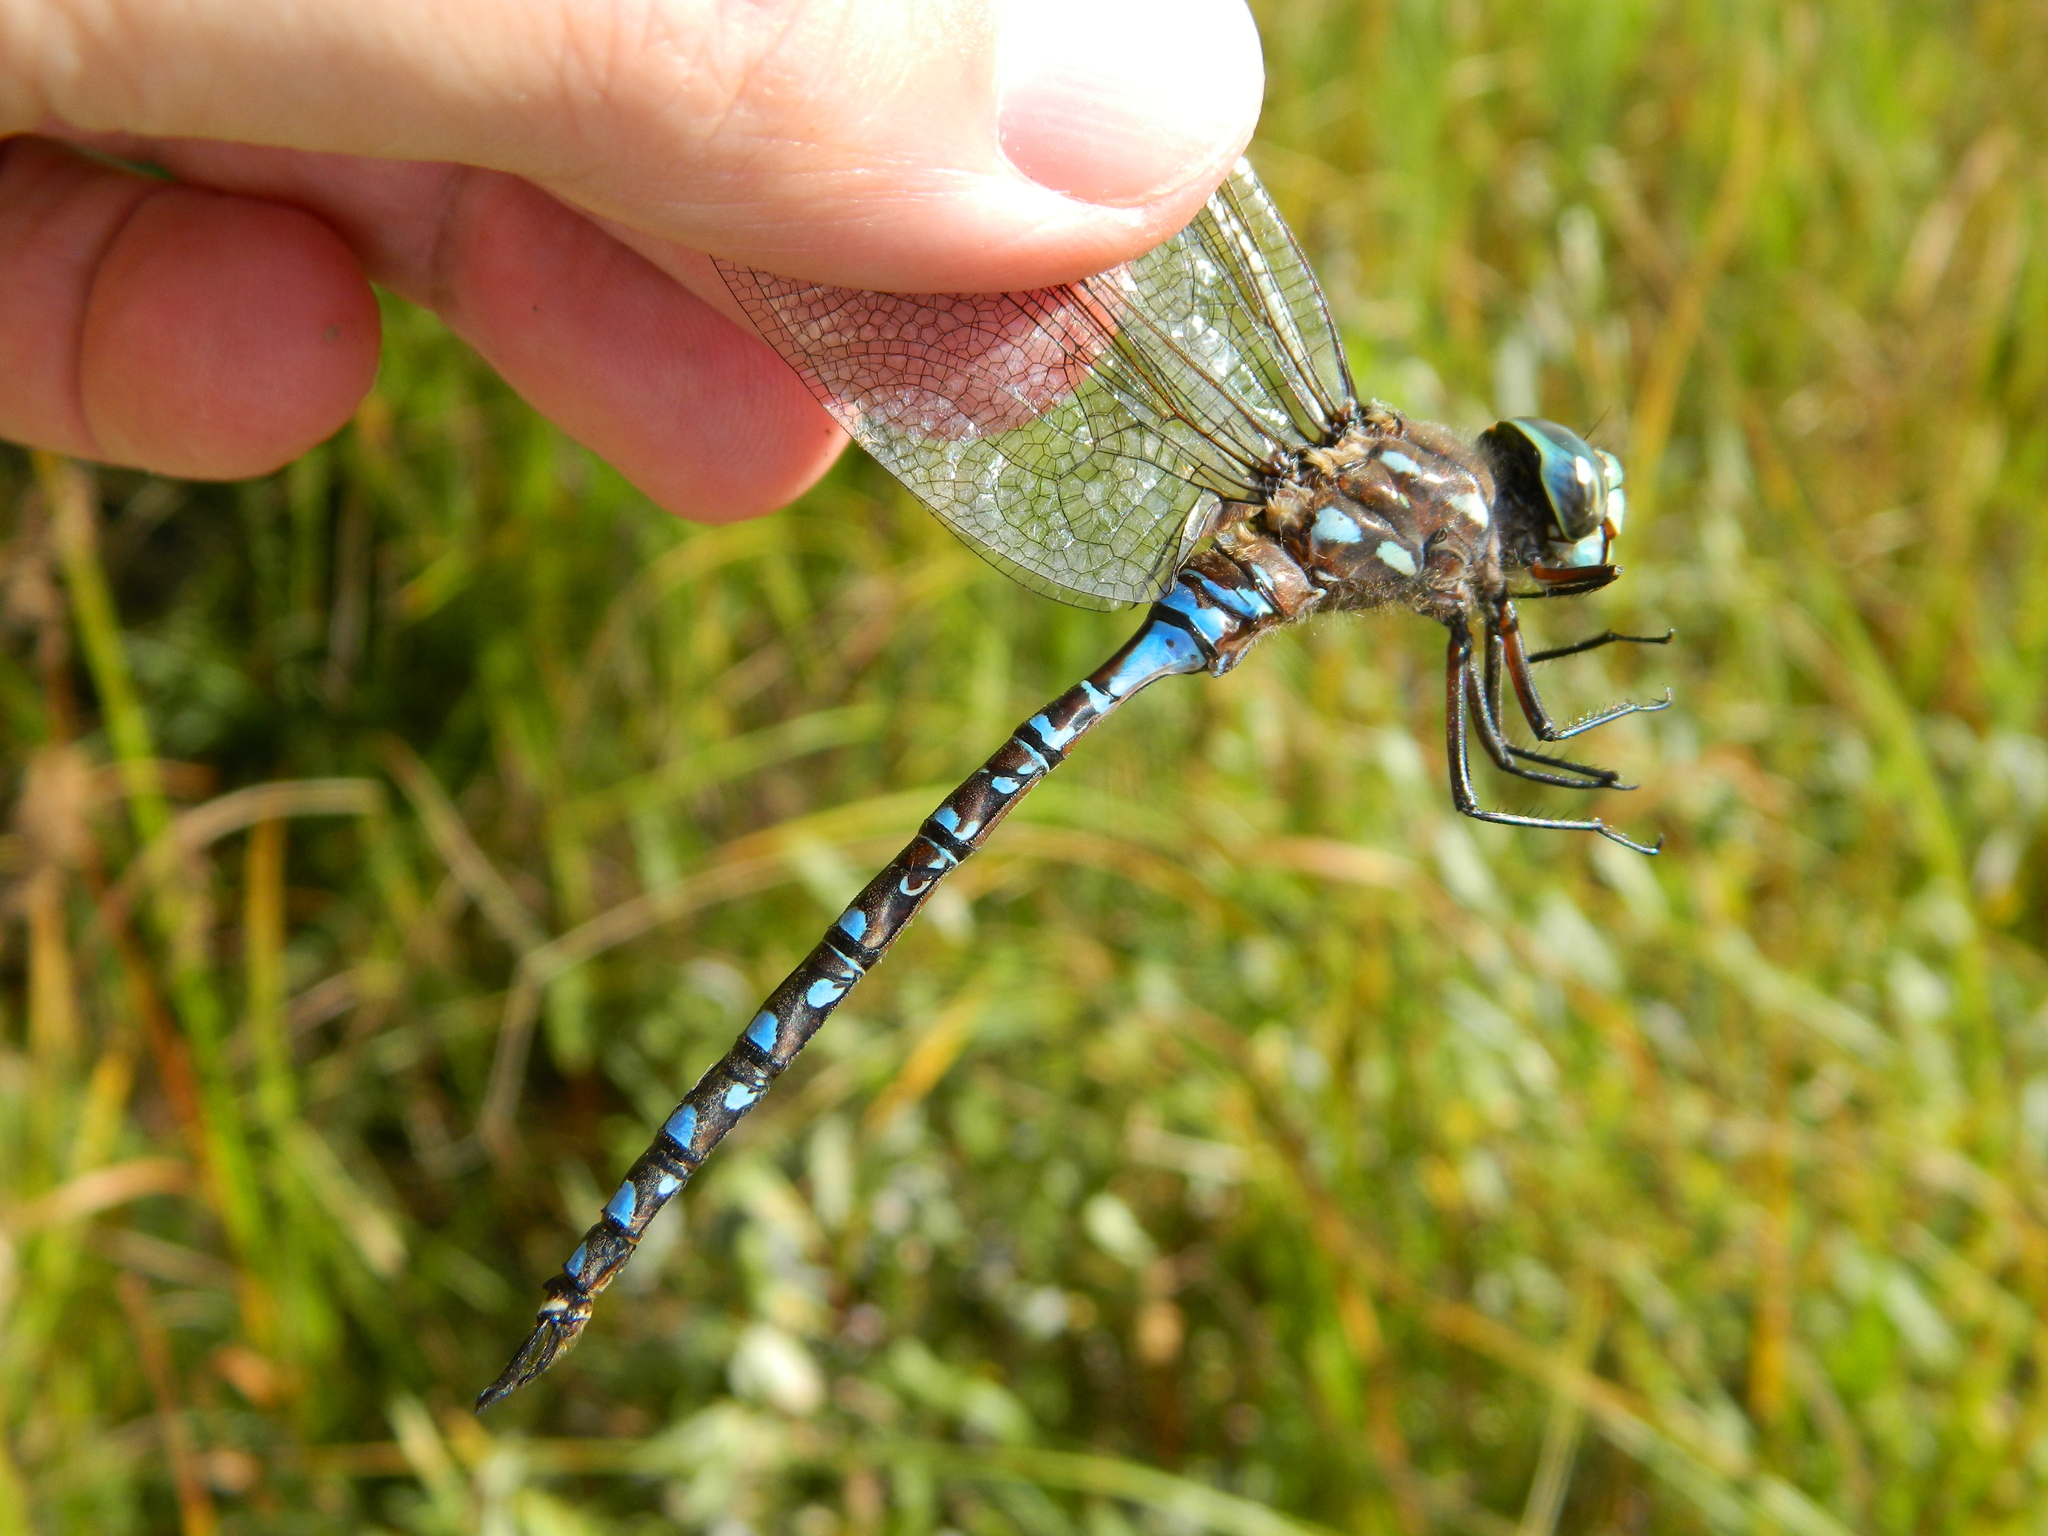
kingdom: Animalia
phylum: Arthropoda
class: Insecta
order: Odonata
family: Aeshnidae
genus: Aeshna
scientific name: Aeshna interrupta
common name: Variable darner
